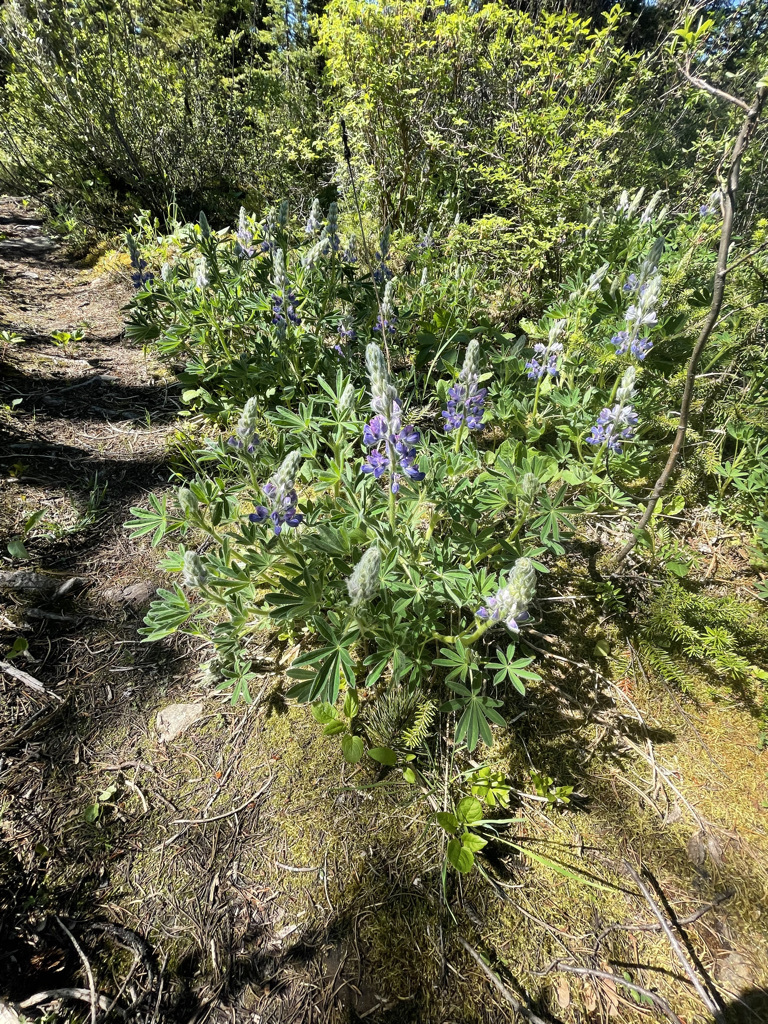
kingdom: Plantae
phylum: Tracheophyta
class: Magnoliopsida
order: Fabales
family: Fabaceae
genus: Lupinus
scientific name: Lupinus nootkatensis
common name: Nootka lupine
